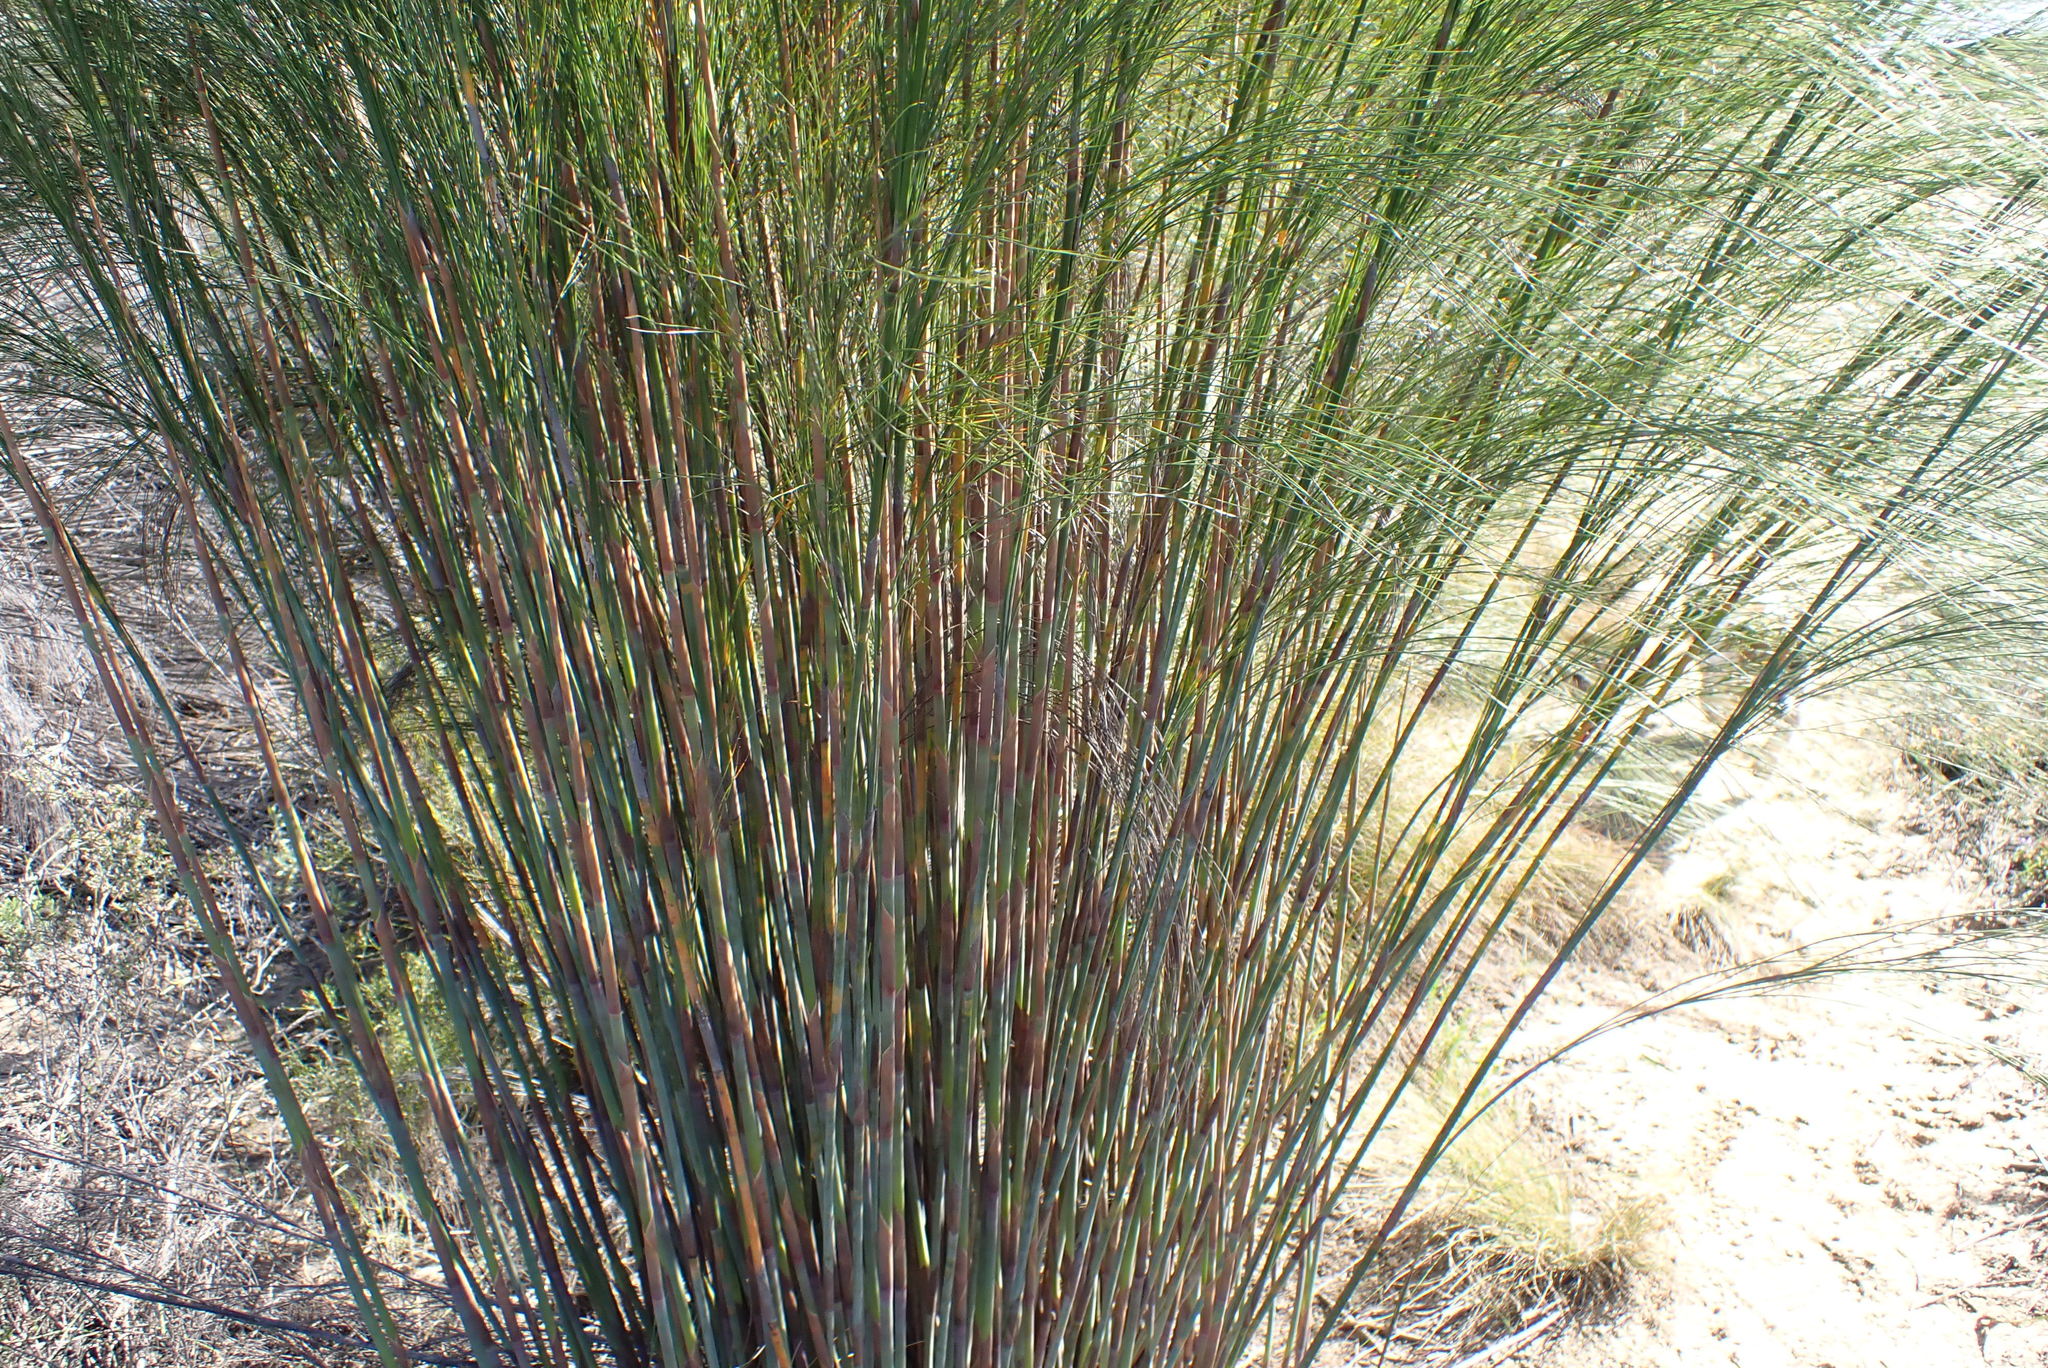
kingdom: Plantae
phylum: Tracheophyta
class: Liliopsida
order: Poales
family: Restionaceae
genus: Cannomois
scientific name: Cannomois robusta
